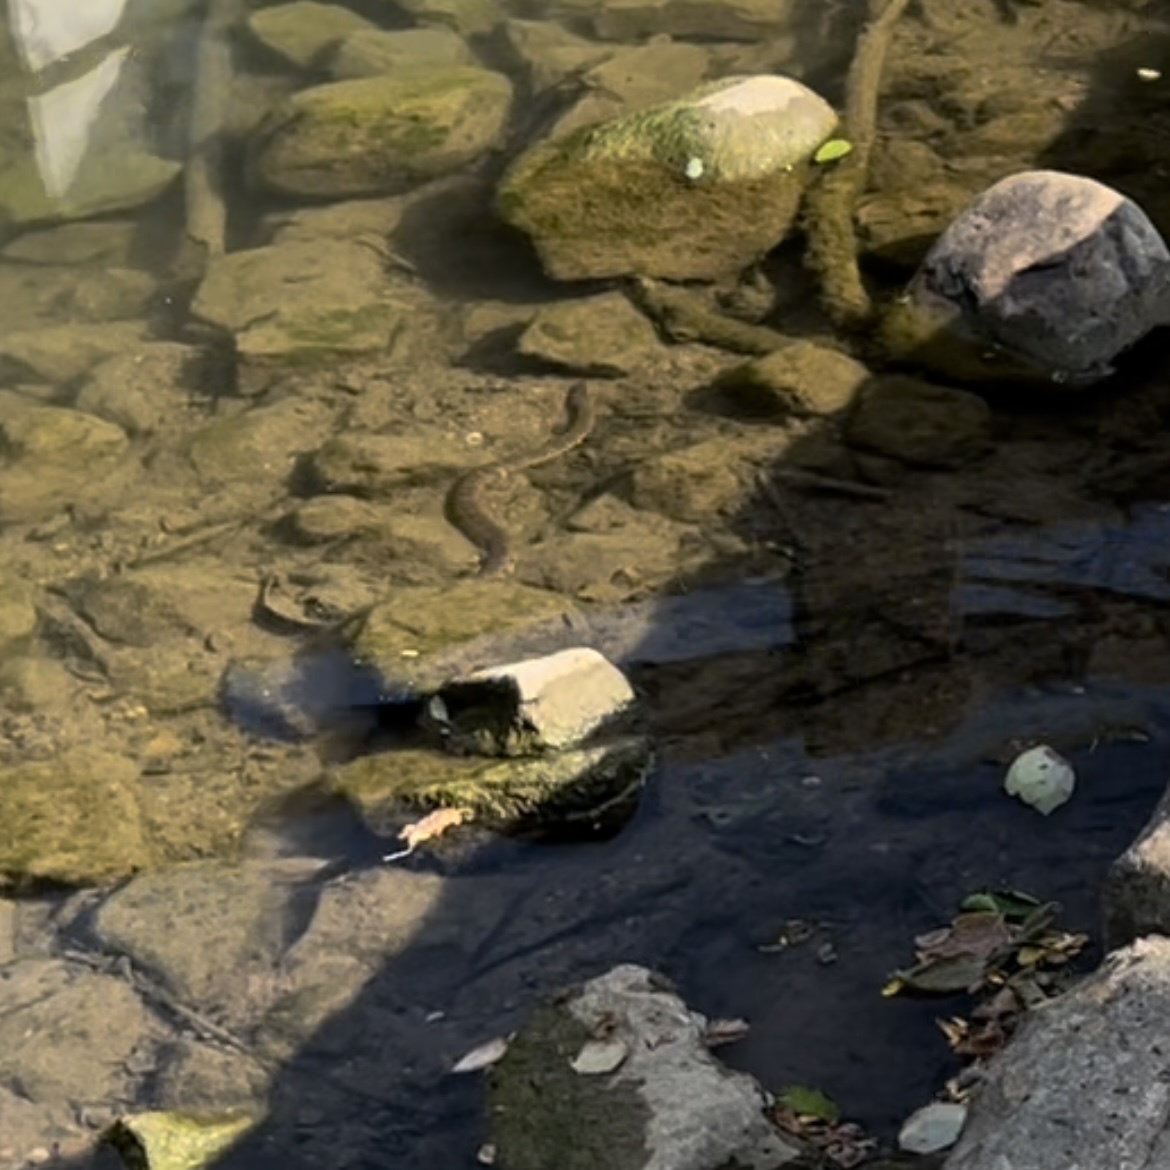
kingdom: Animalia
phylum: Chordata
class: Squamata
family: Colubridae
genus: Nerodia
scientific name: Nerodia sipedon
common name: Northern water snake
